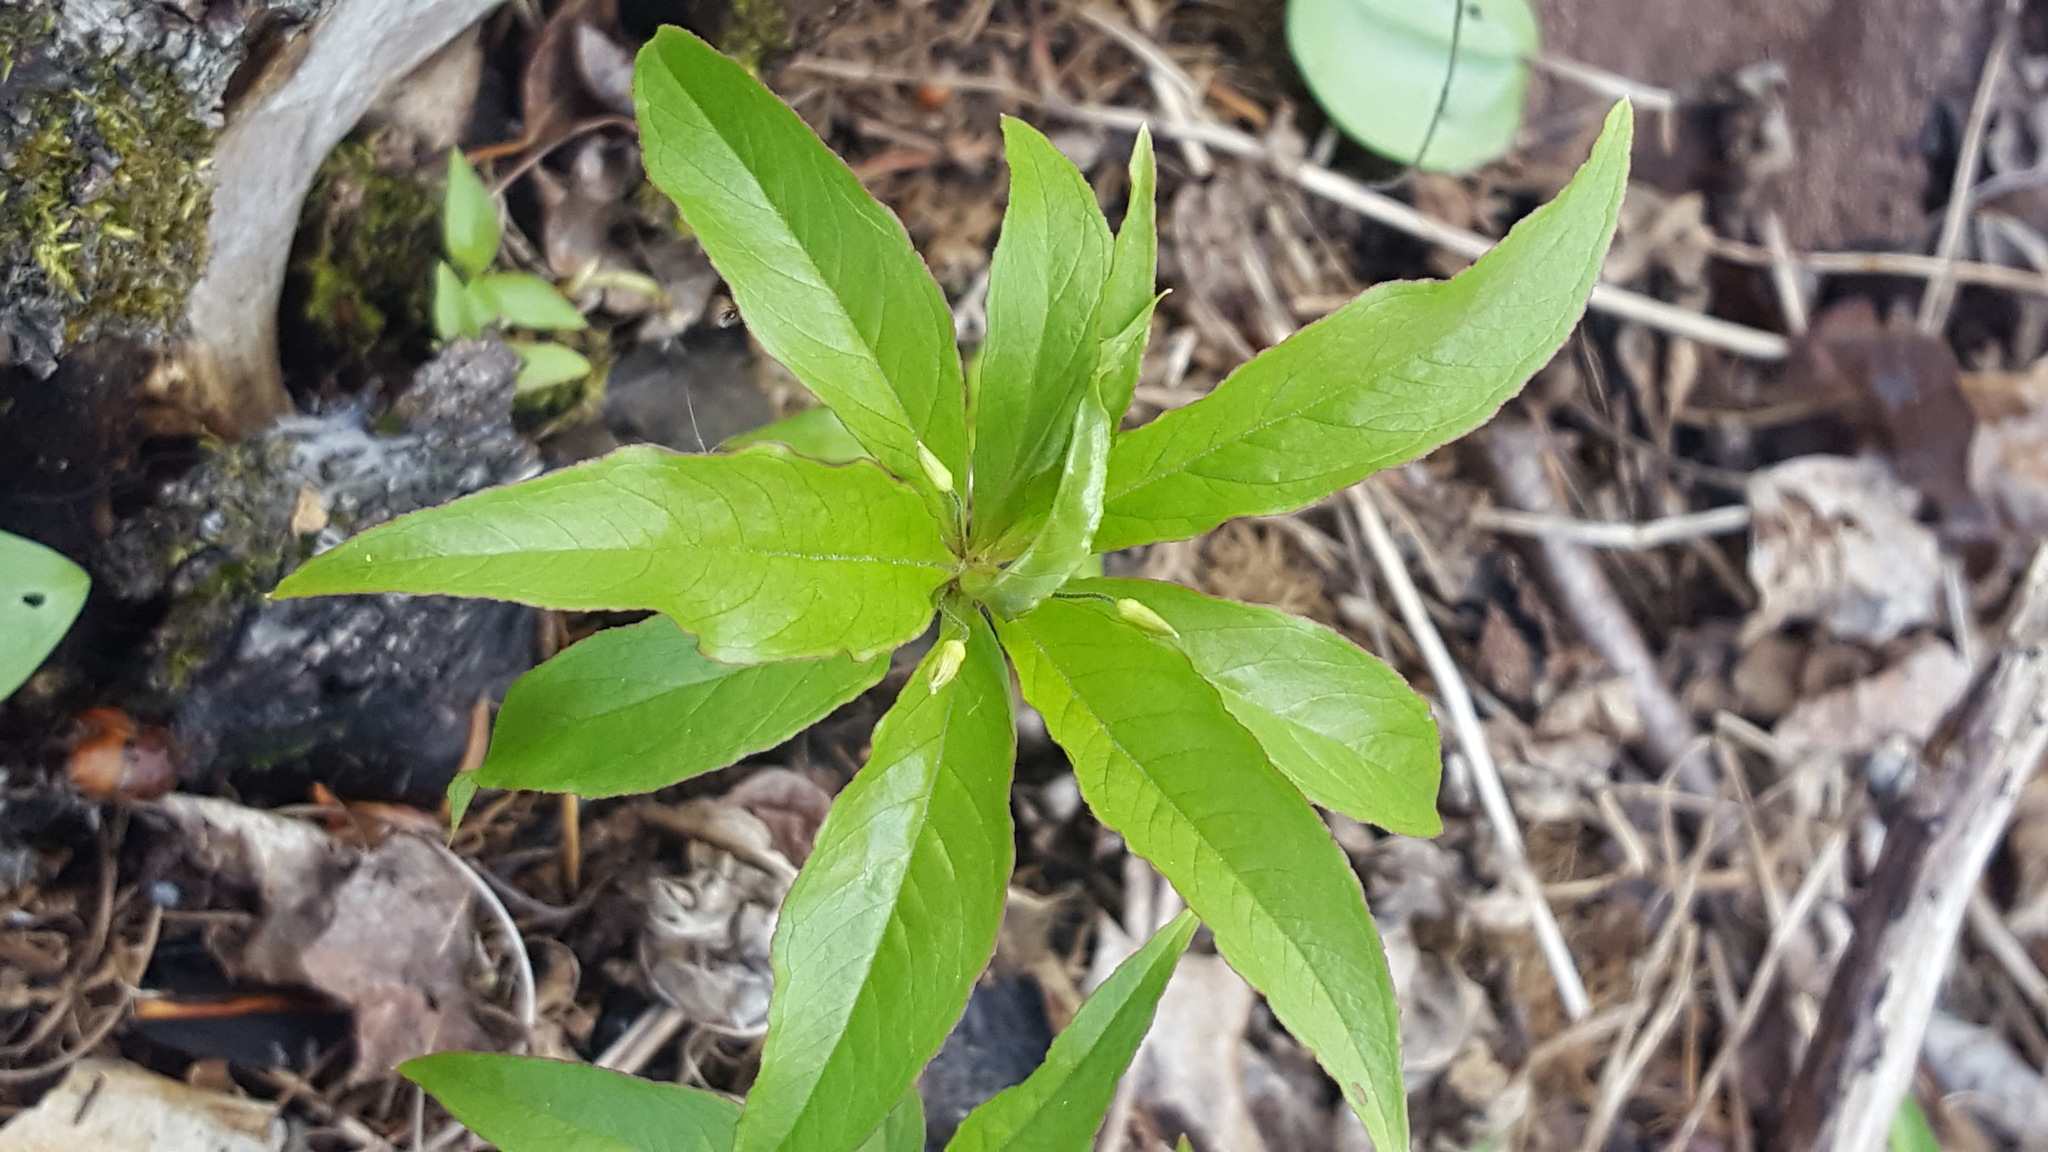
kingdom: Plantae
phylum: Tracheophyta
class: Magnoliopsida
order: Ericales
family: Primulaceae
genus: Lysimachia
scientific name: Lysimachia borealis
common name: American starflower
